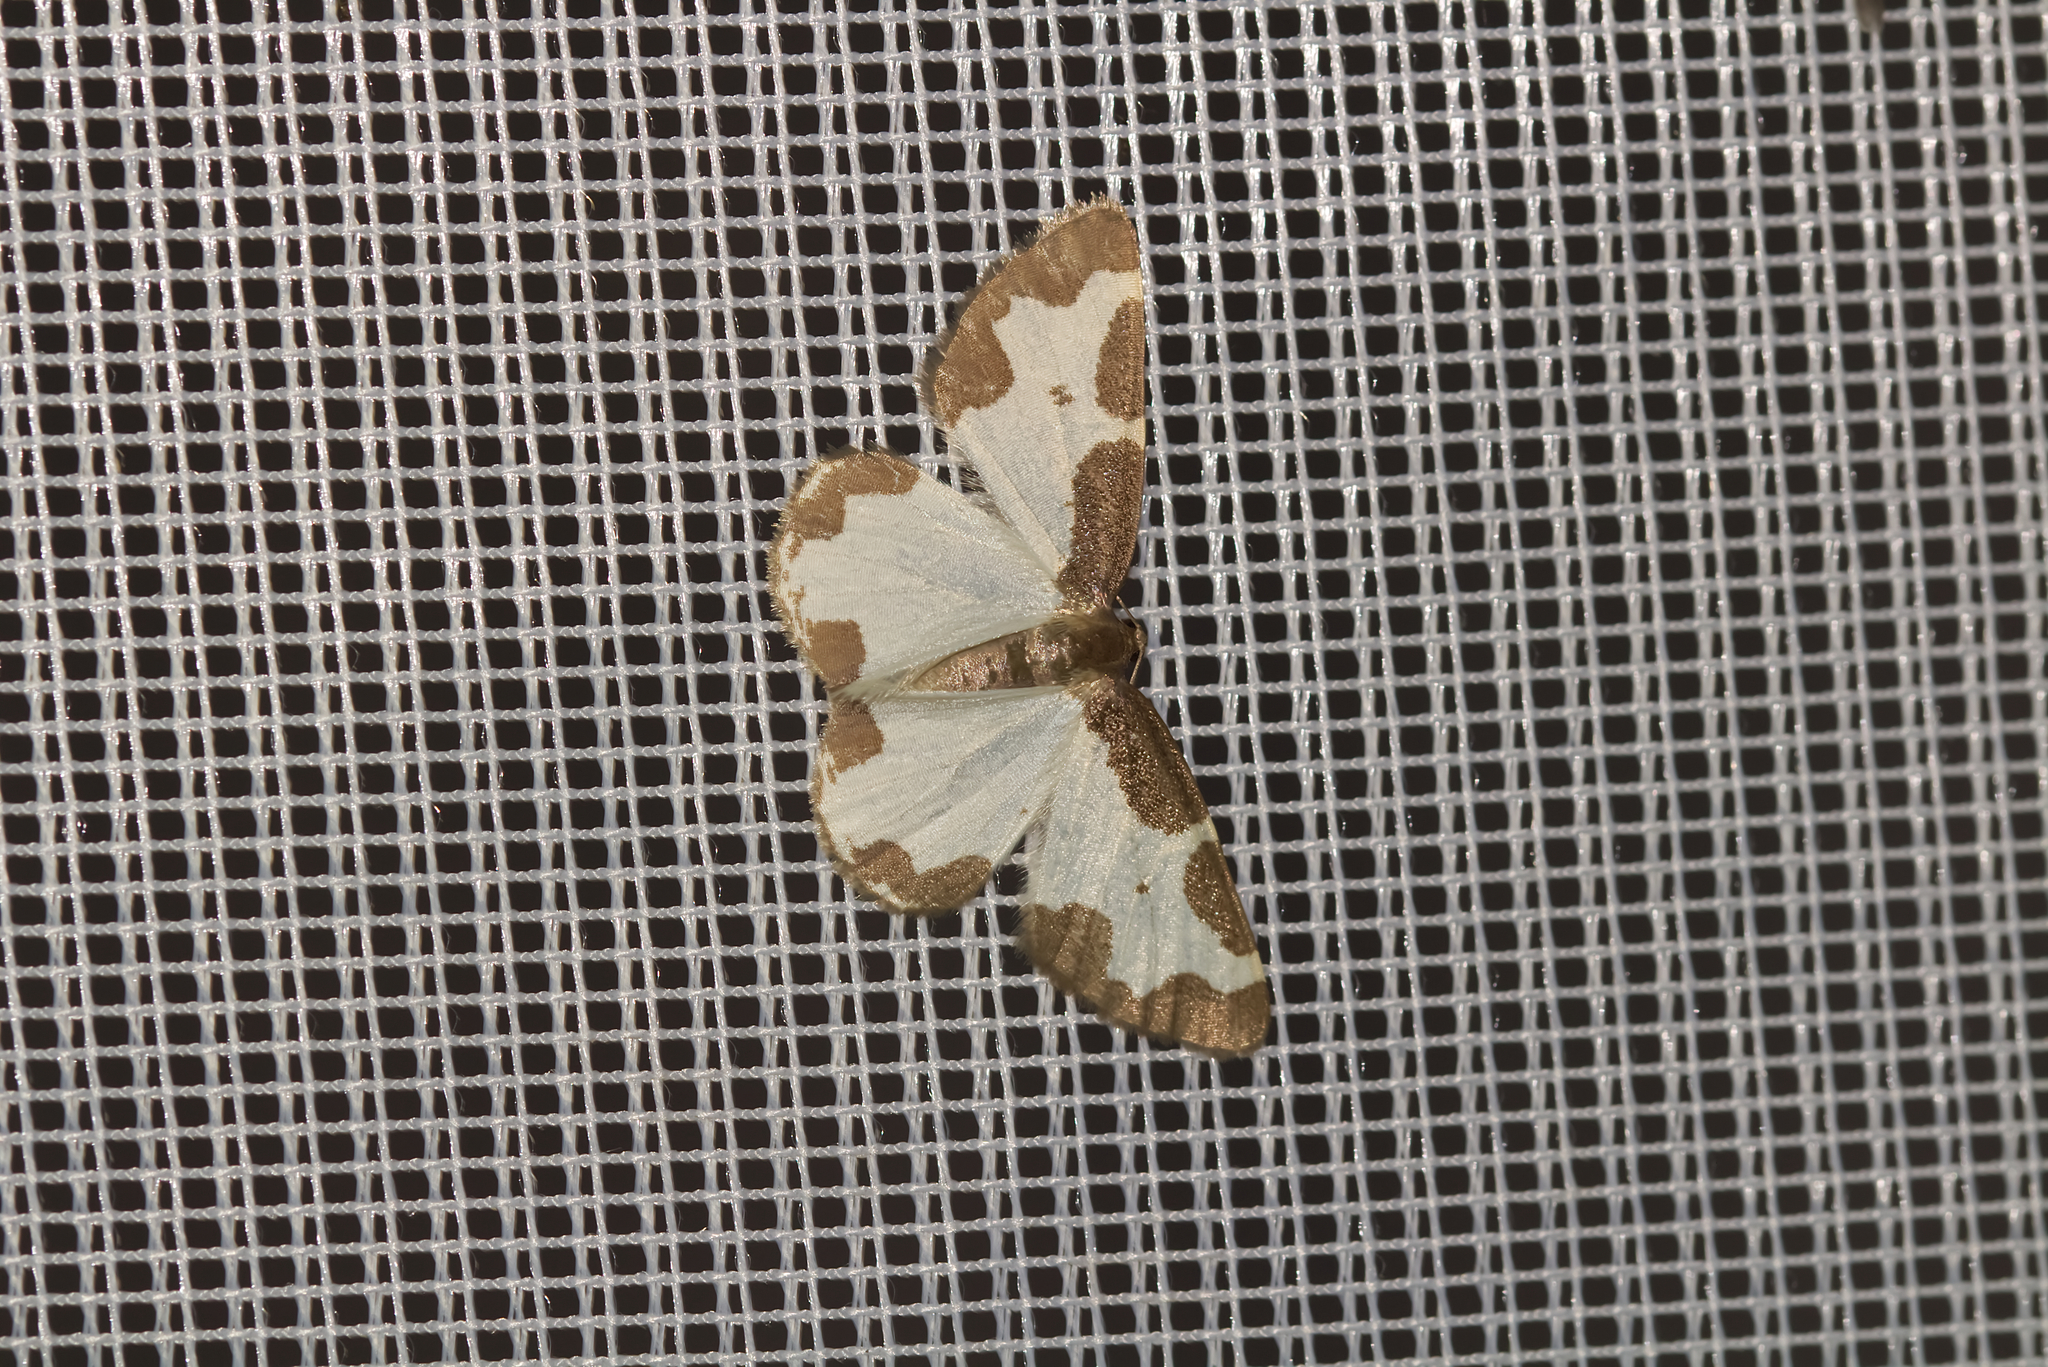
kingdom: Animalia
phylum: Arthropoda
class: Insecta
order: Lepidoptera
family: Geometridae
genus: Lomaspilis
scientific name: Lomaspilis marginata
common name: Clouded border
